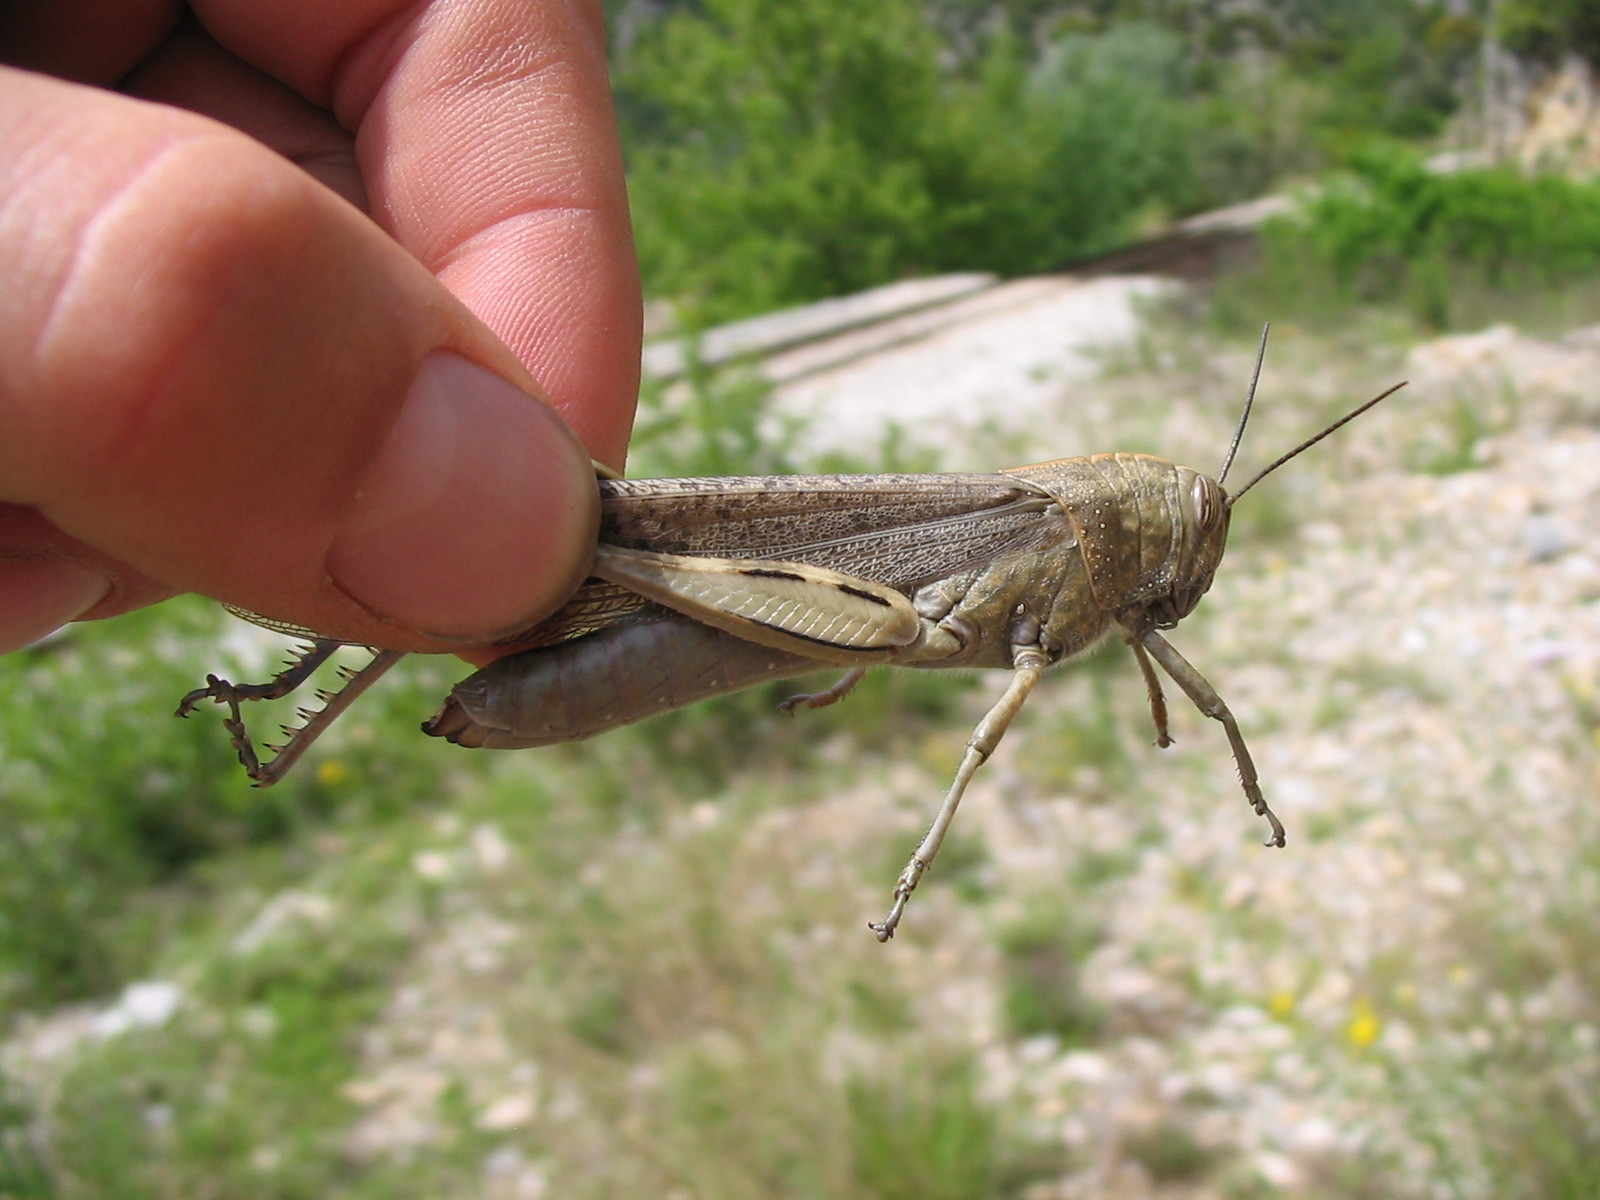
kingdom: Animalia
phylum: Arthropoda
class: Insecta
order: Orthoptera
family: Acrididae
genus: Anacridium
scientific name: Anacridium aegyptium
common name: Egyptian grasshopper
